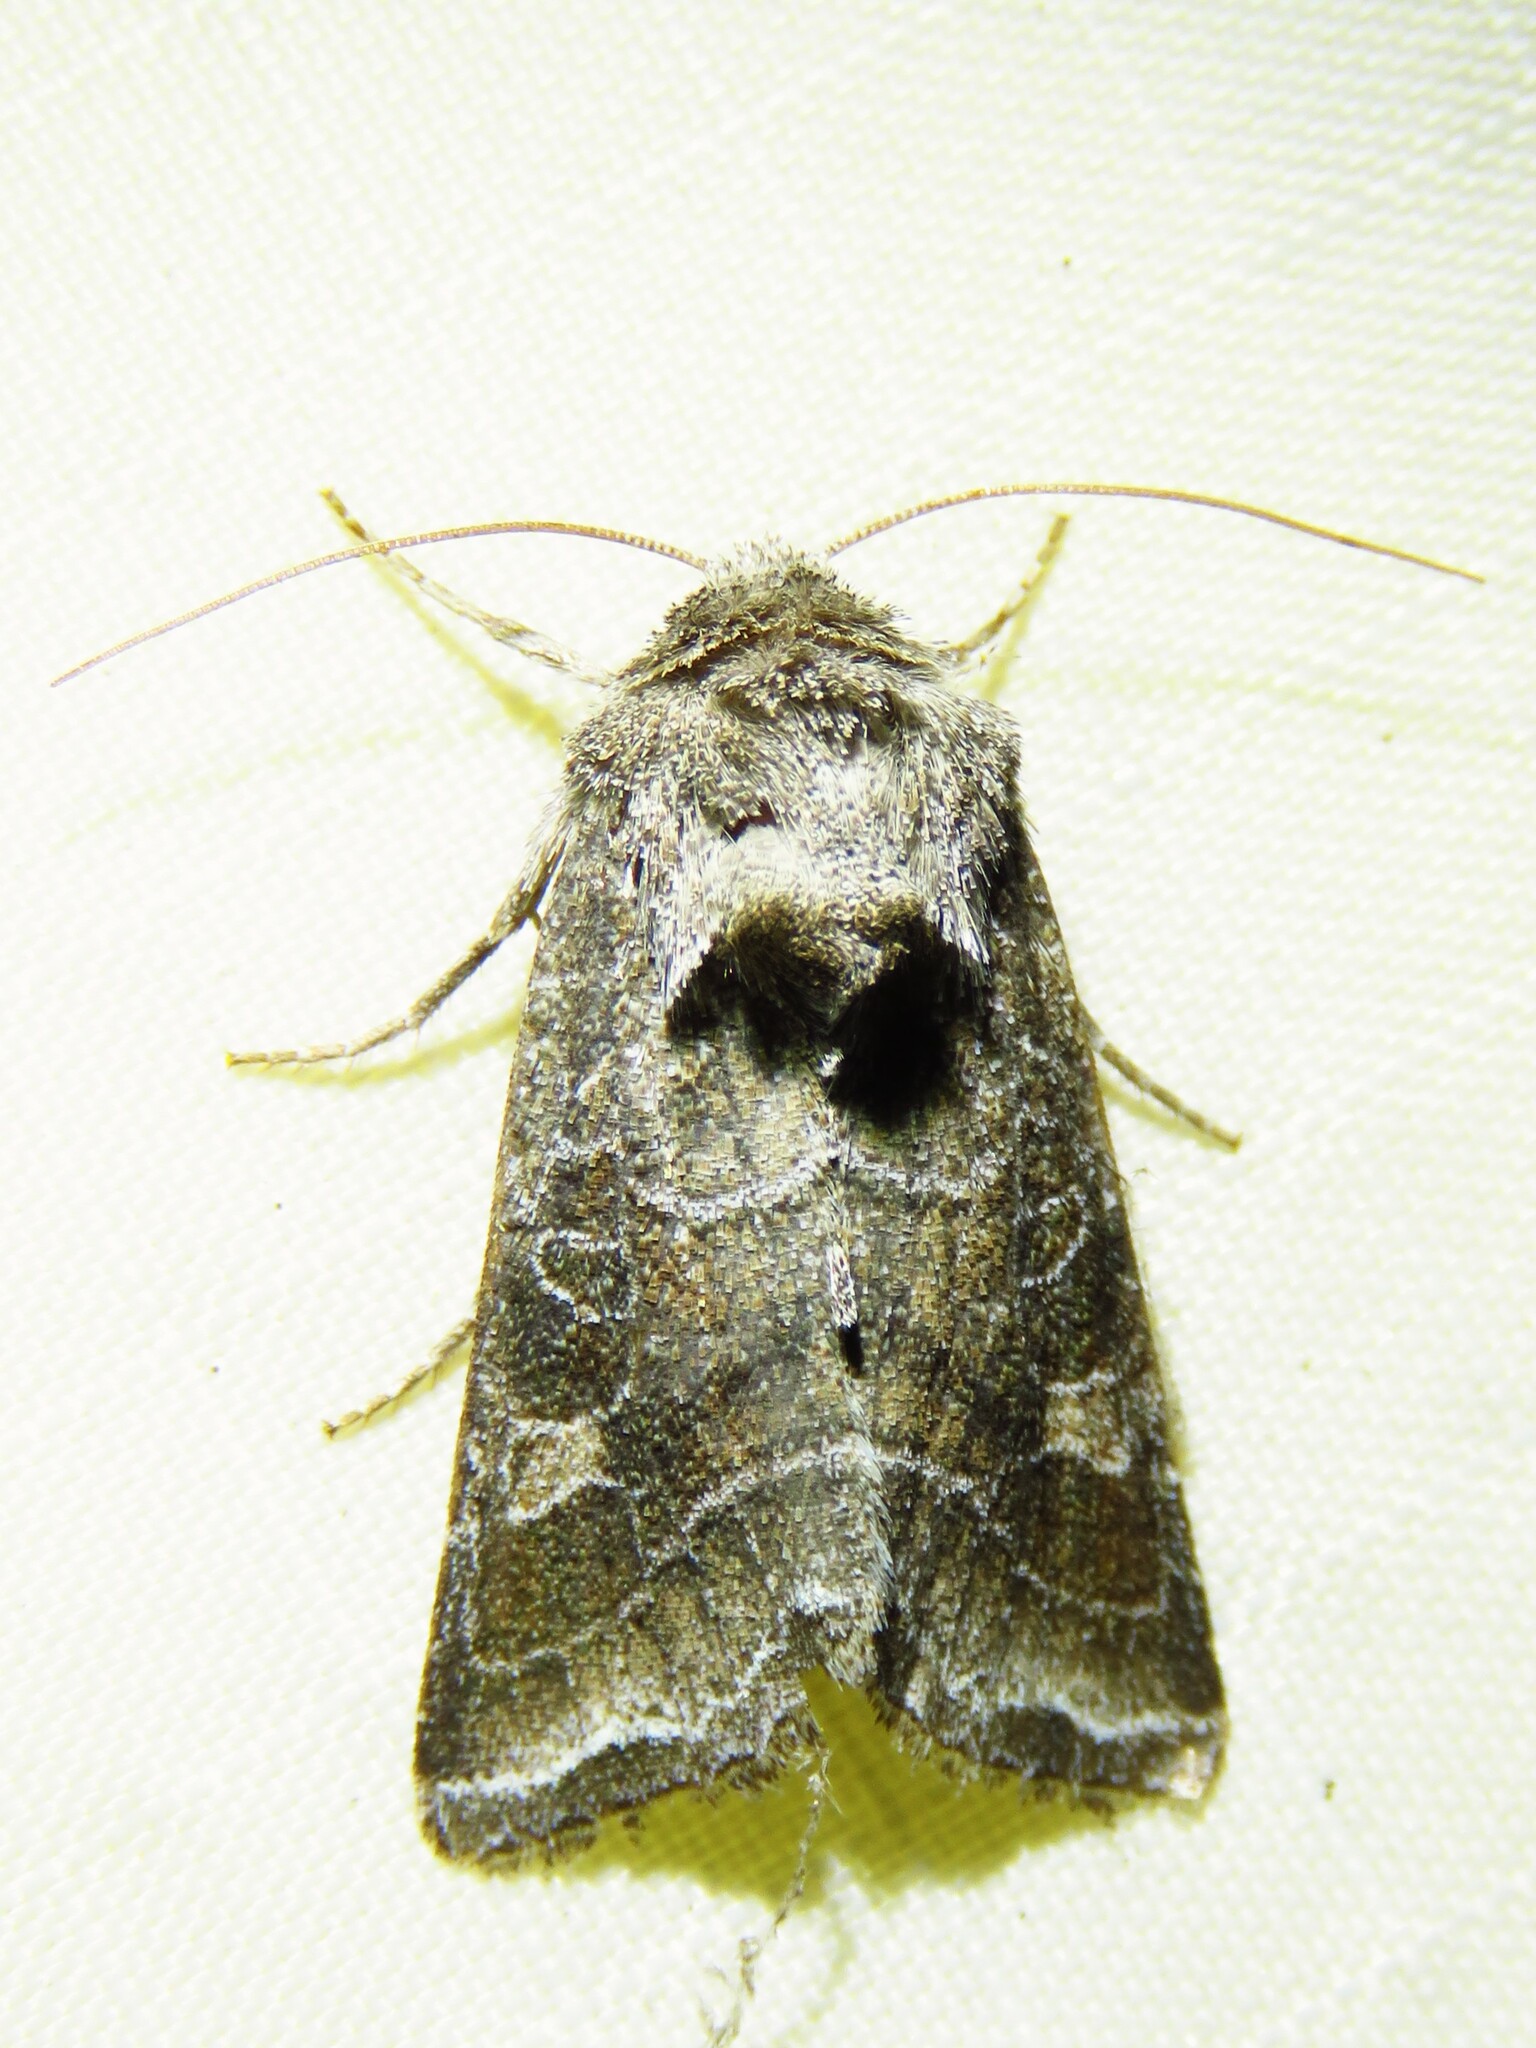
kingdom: Animalia
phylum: Arthropoda
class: Insecta
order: Lepidoptera
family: Noctuidae
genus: Lacinipolia
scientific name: Lacinipolia erecta
